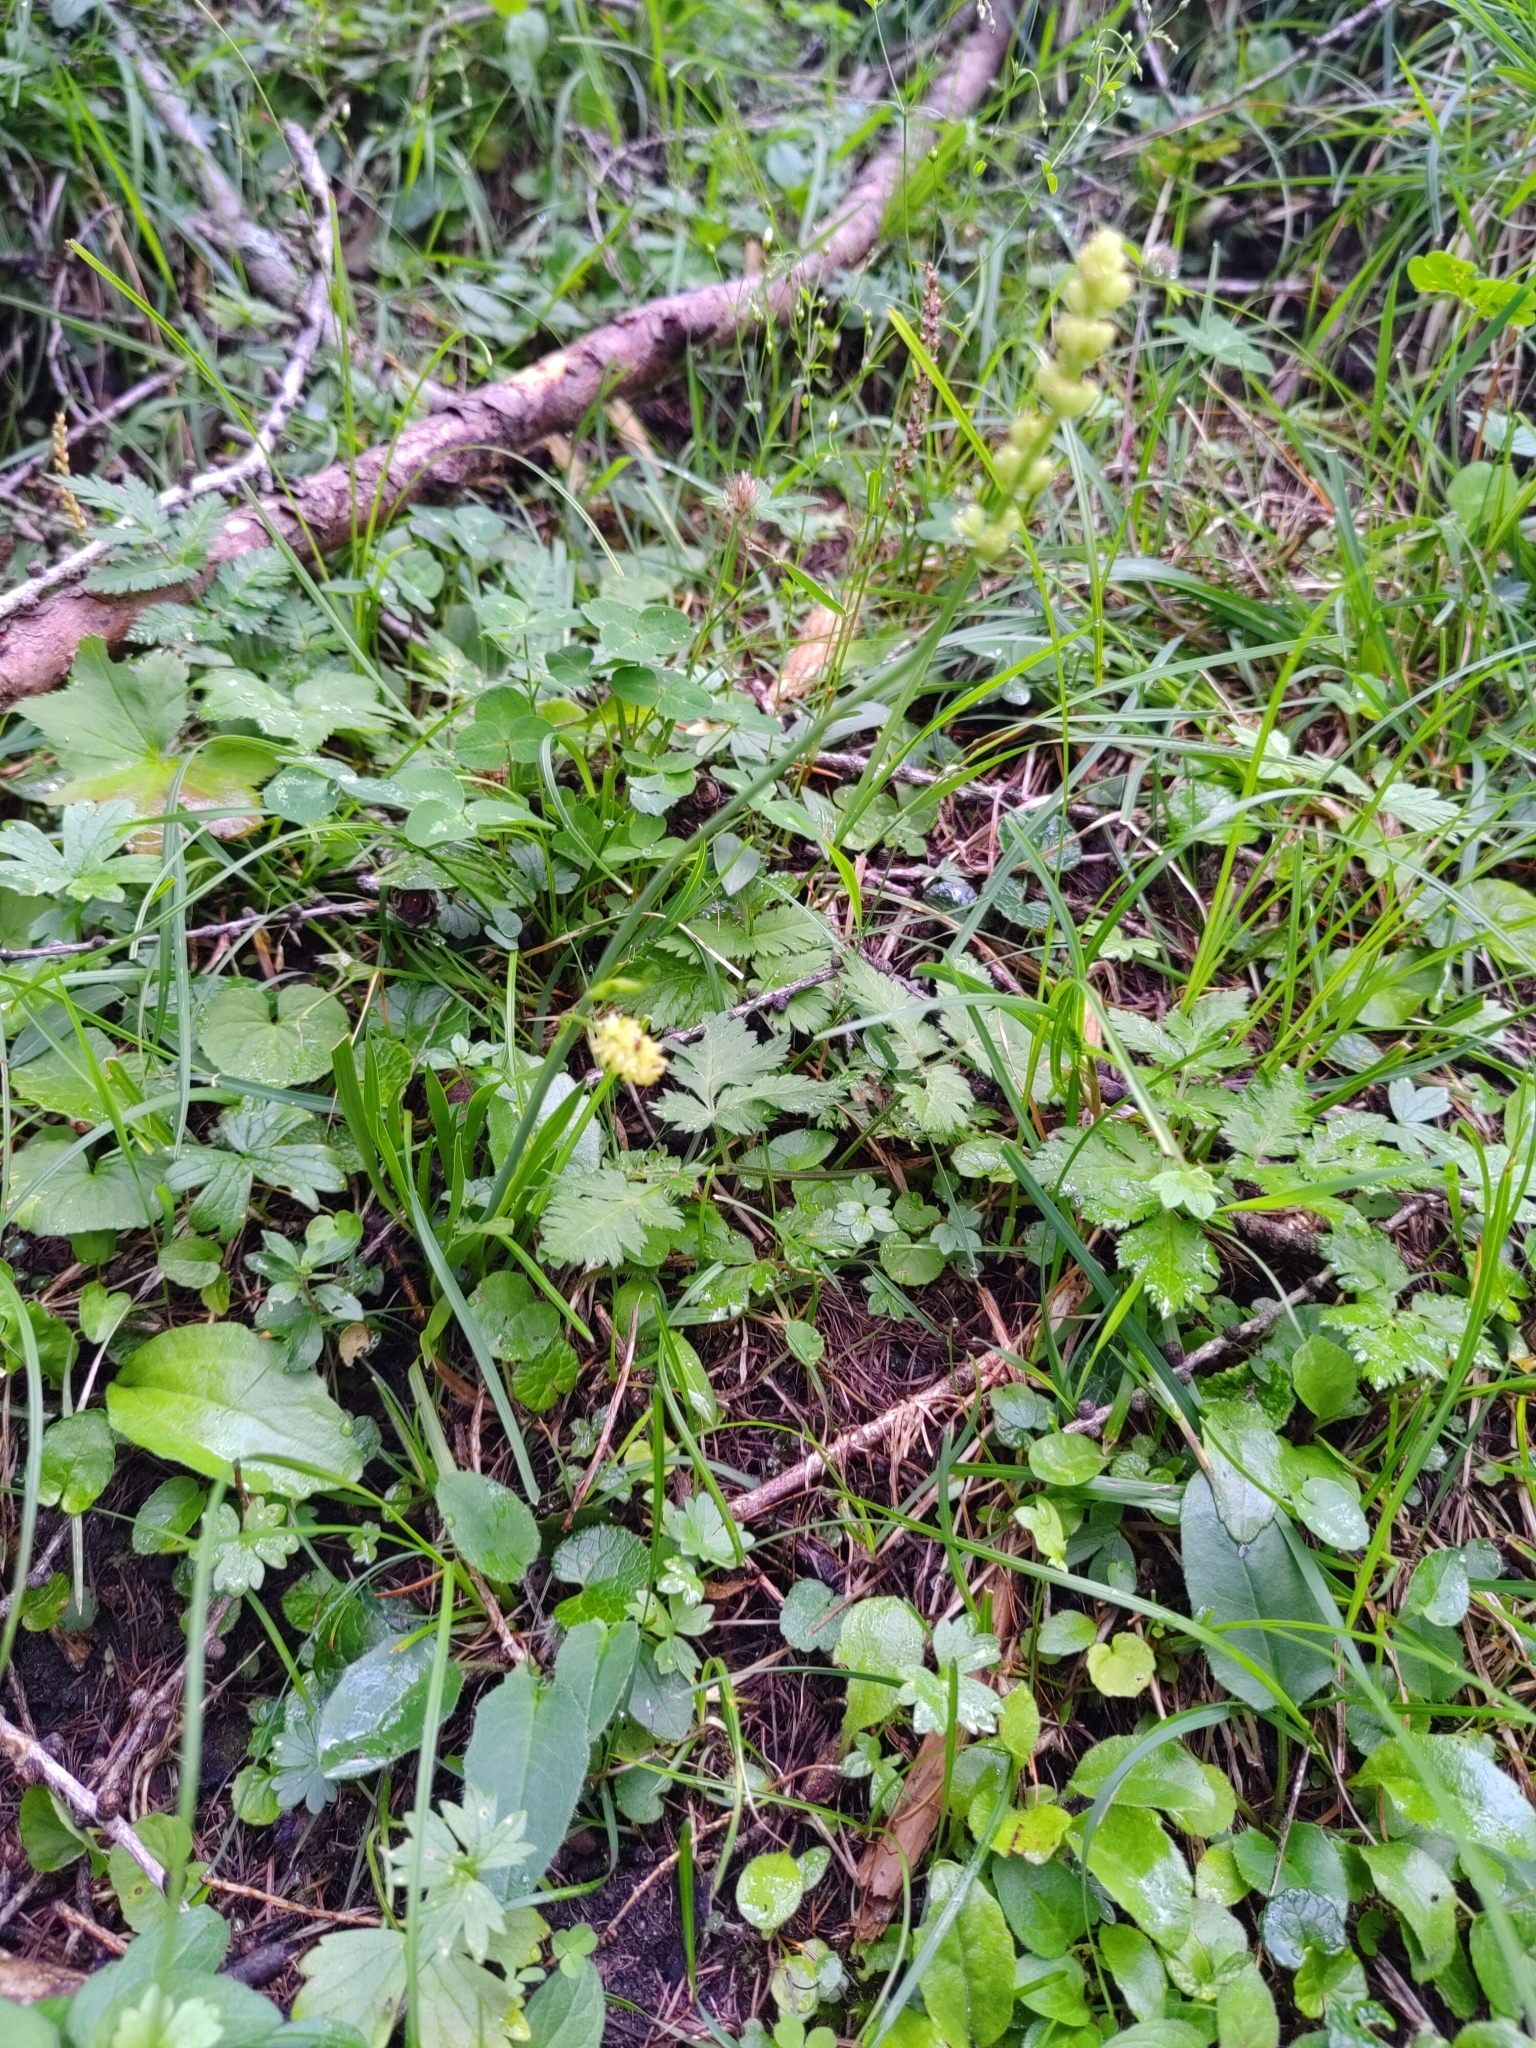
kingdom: Plantae
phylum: Tracheophyta
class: Liliopsida
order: Alismatales
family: Tofieldiaceae
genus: Tofieldia
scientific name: Tofieldia calyculata
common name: German-asphodel
